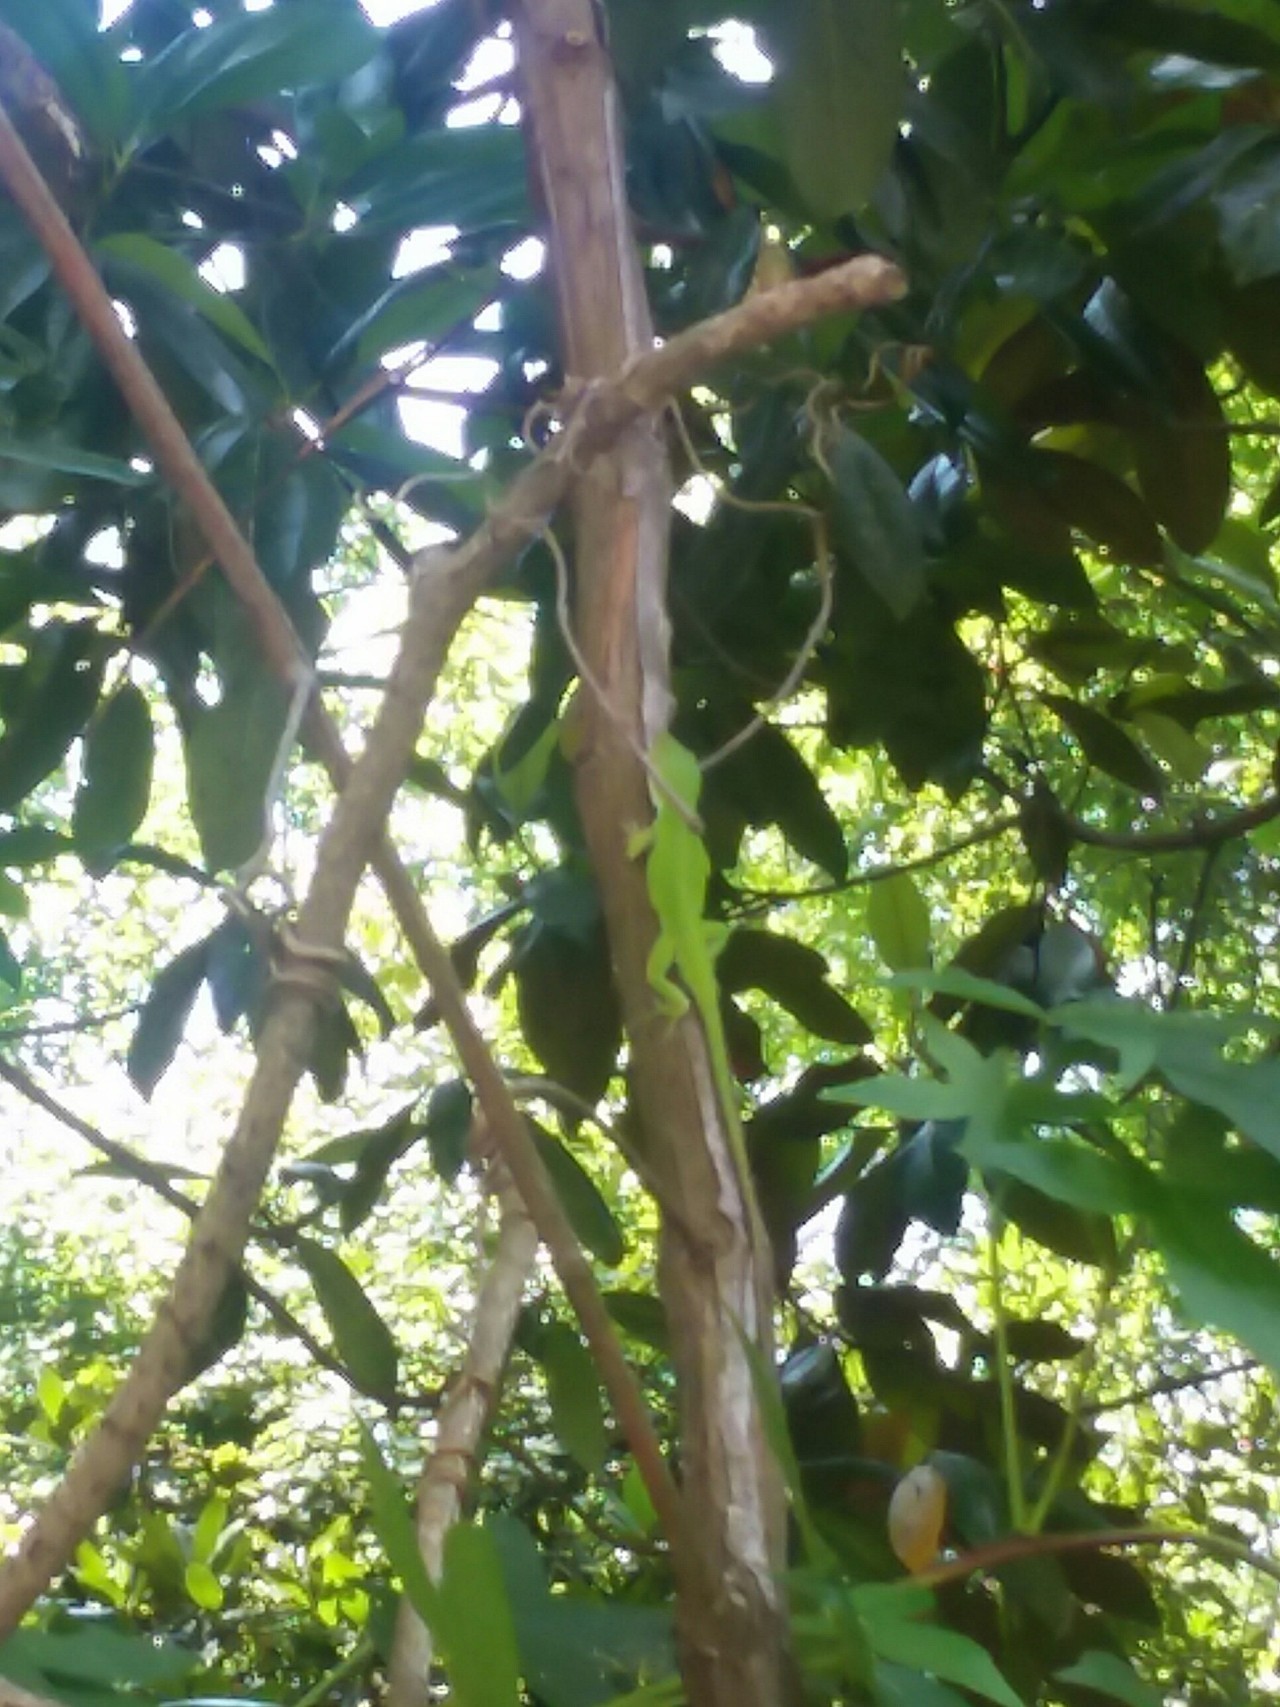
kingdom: Animalia
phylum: Chordata
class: Squamata
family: Dactyloidae
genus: Anolis
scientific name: Anolis carolinensis
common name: Green anole
